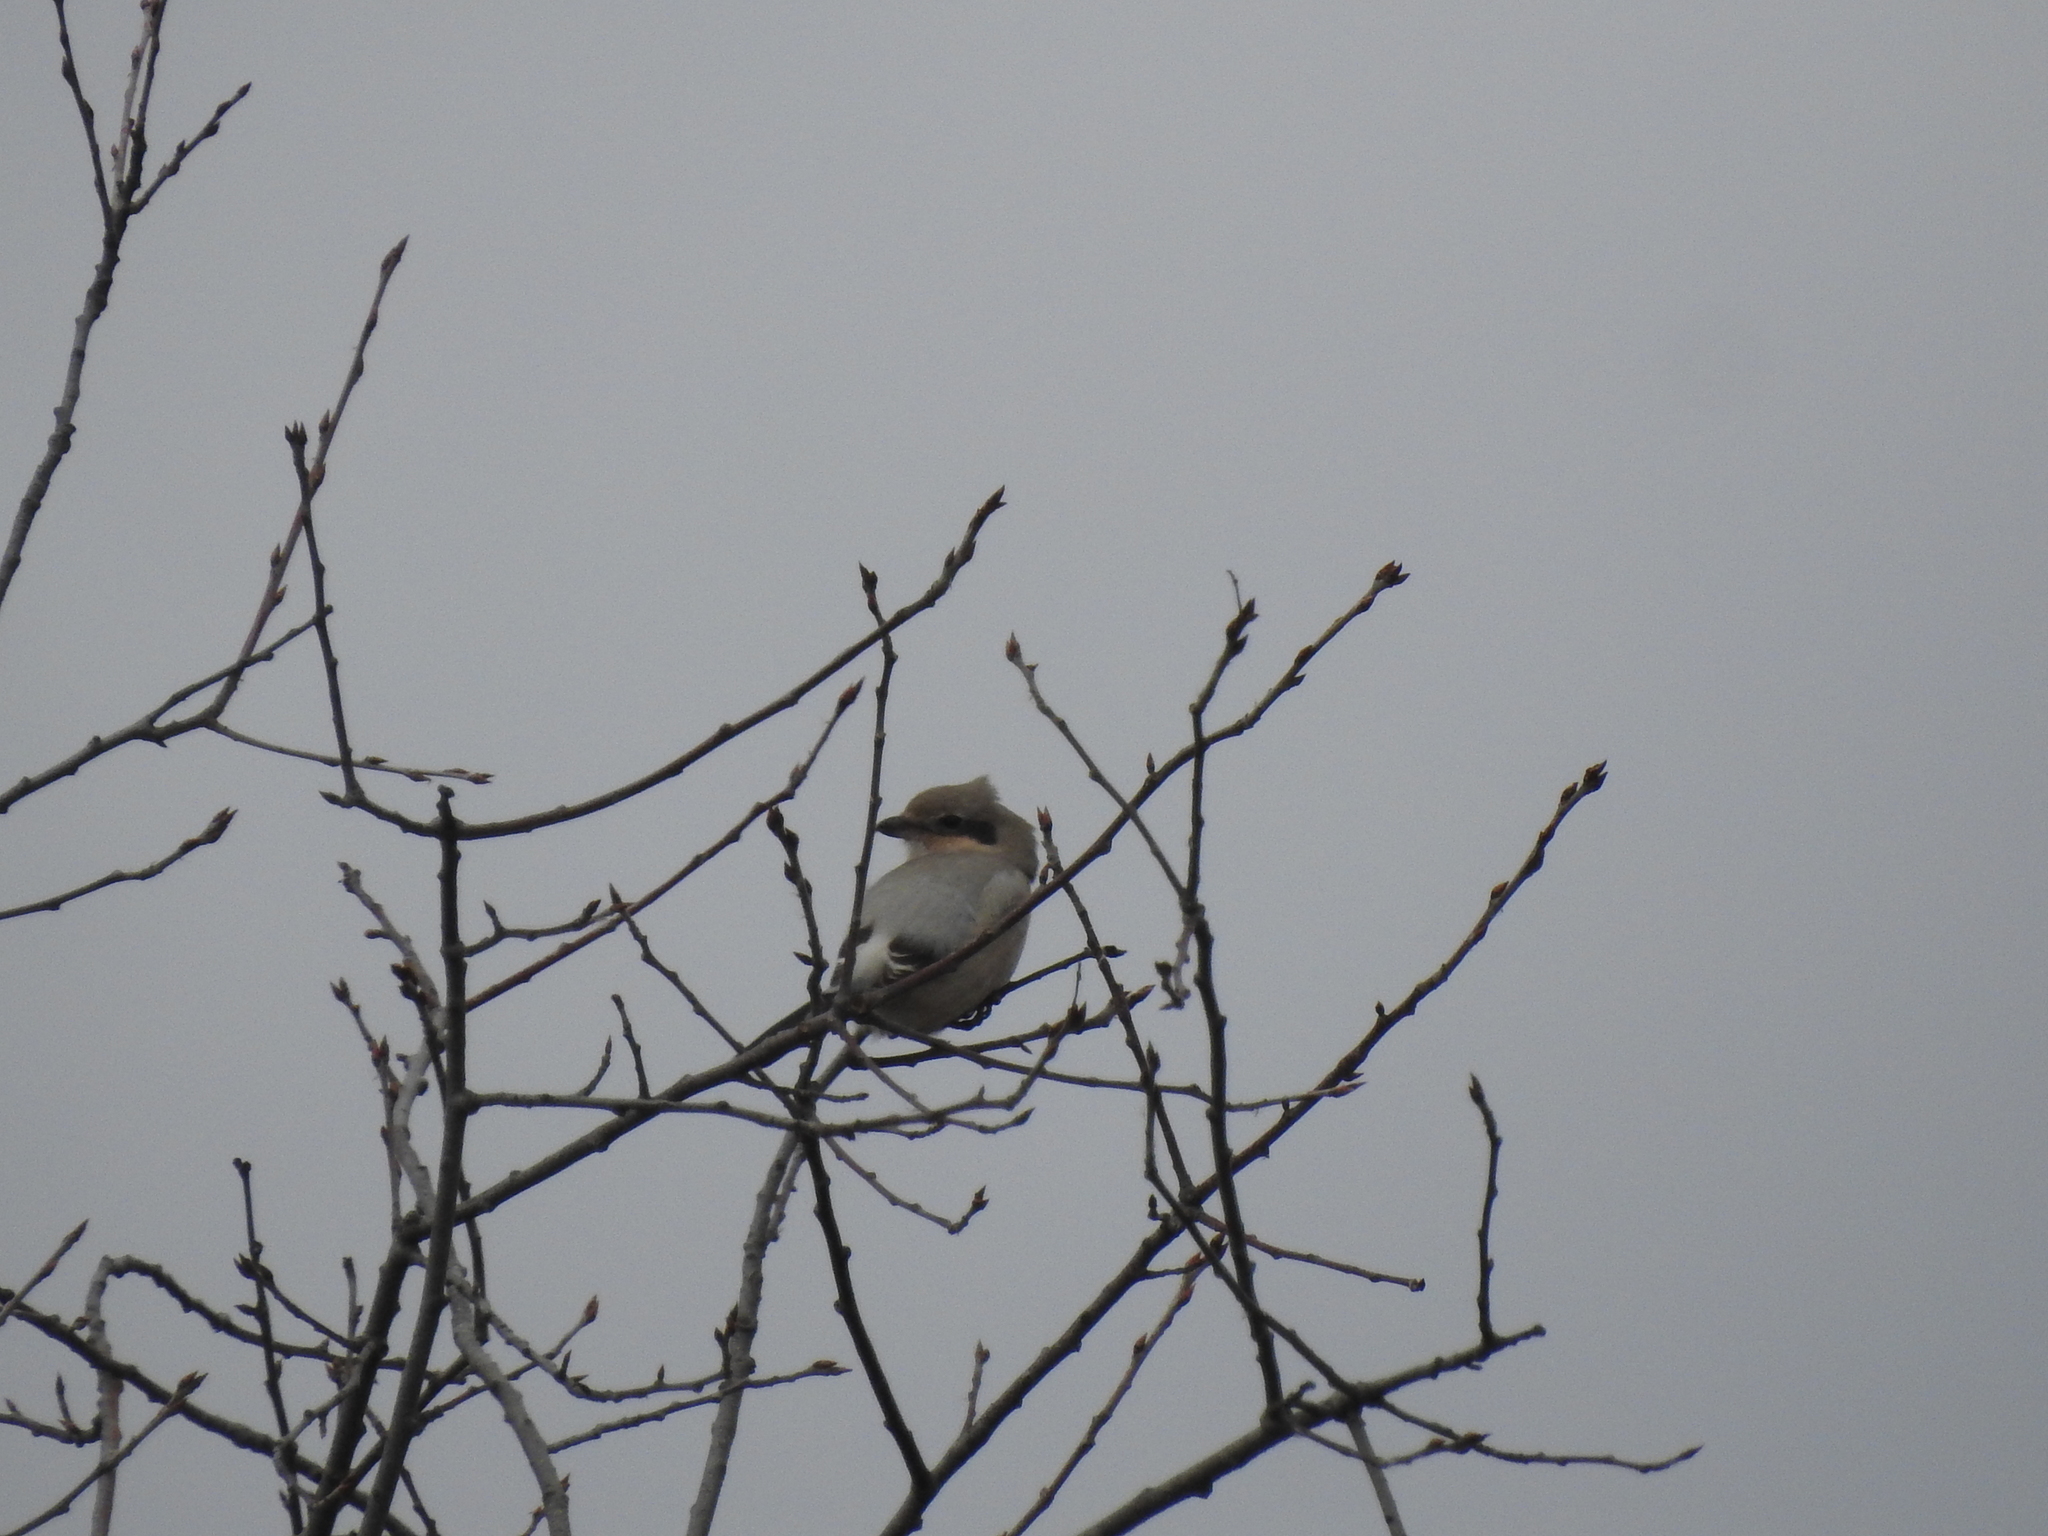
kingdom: Animalia
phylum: Chordata
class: Aves
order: Passeriformes
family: Laniidae
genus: Lanius
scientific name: Lanius excubitor
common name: Great grey shrike
